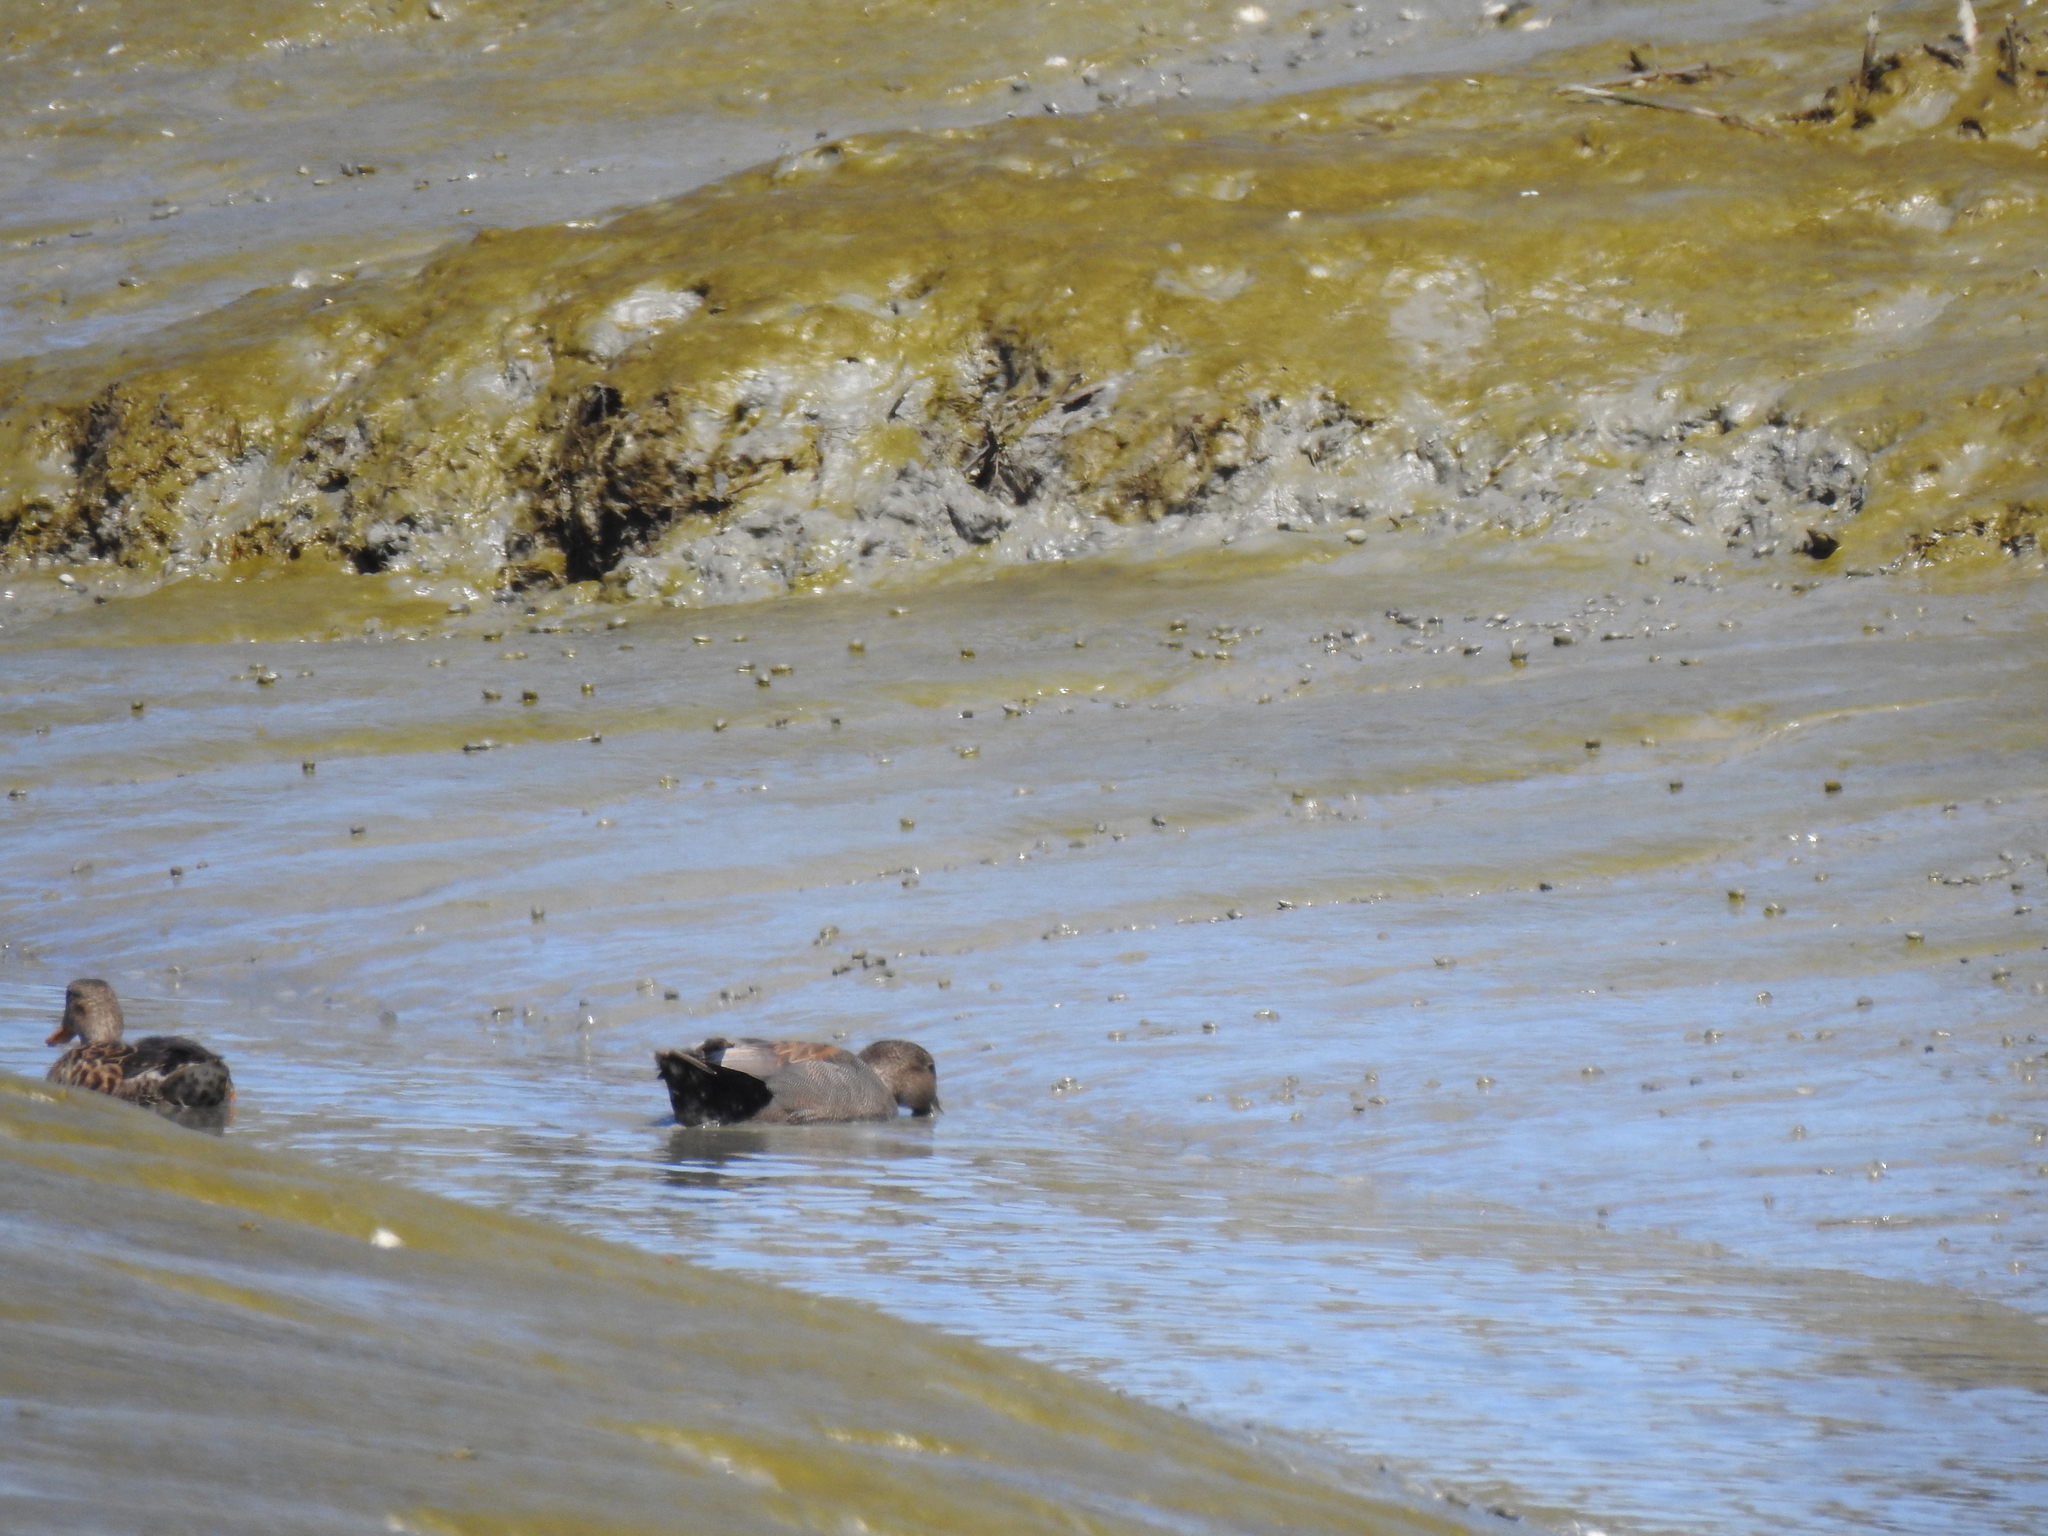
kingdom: Animalia
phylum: Chordata
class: Aves
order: Anseriformes
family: Anatidae
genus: Mareca
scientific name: Mareca strepera
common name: Gadwall
